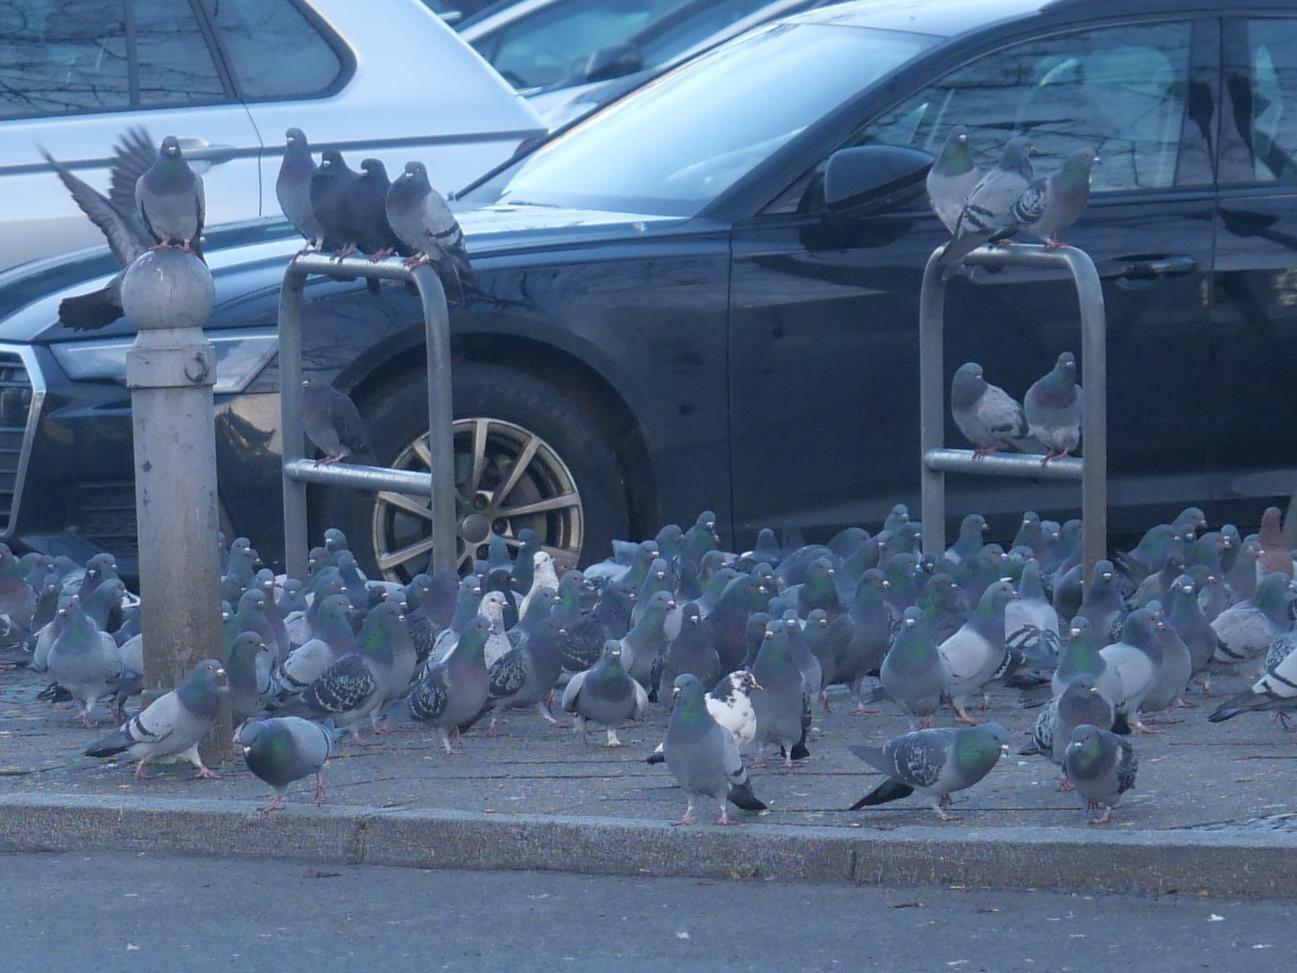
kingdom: Animalia
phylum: Chordata
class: Aves
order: Columbiformes
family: Columbidae
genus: Columba
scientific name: Columba livia
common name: Rock pigeon
